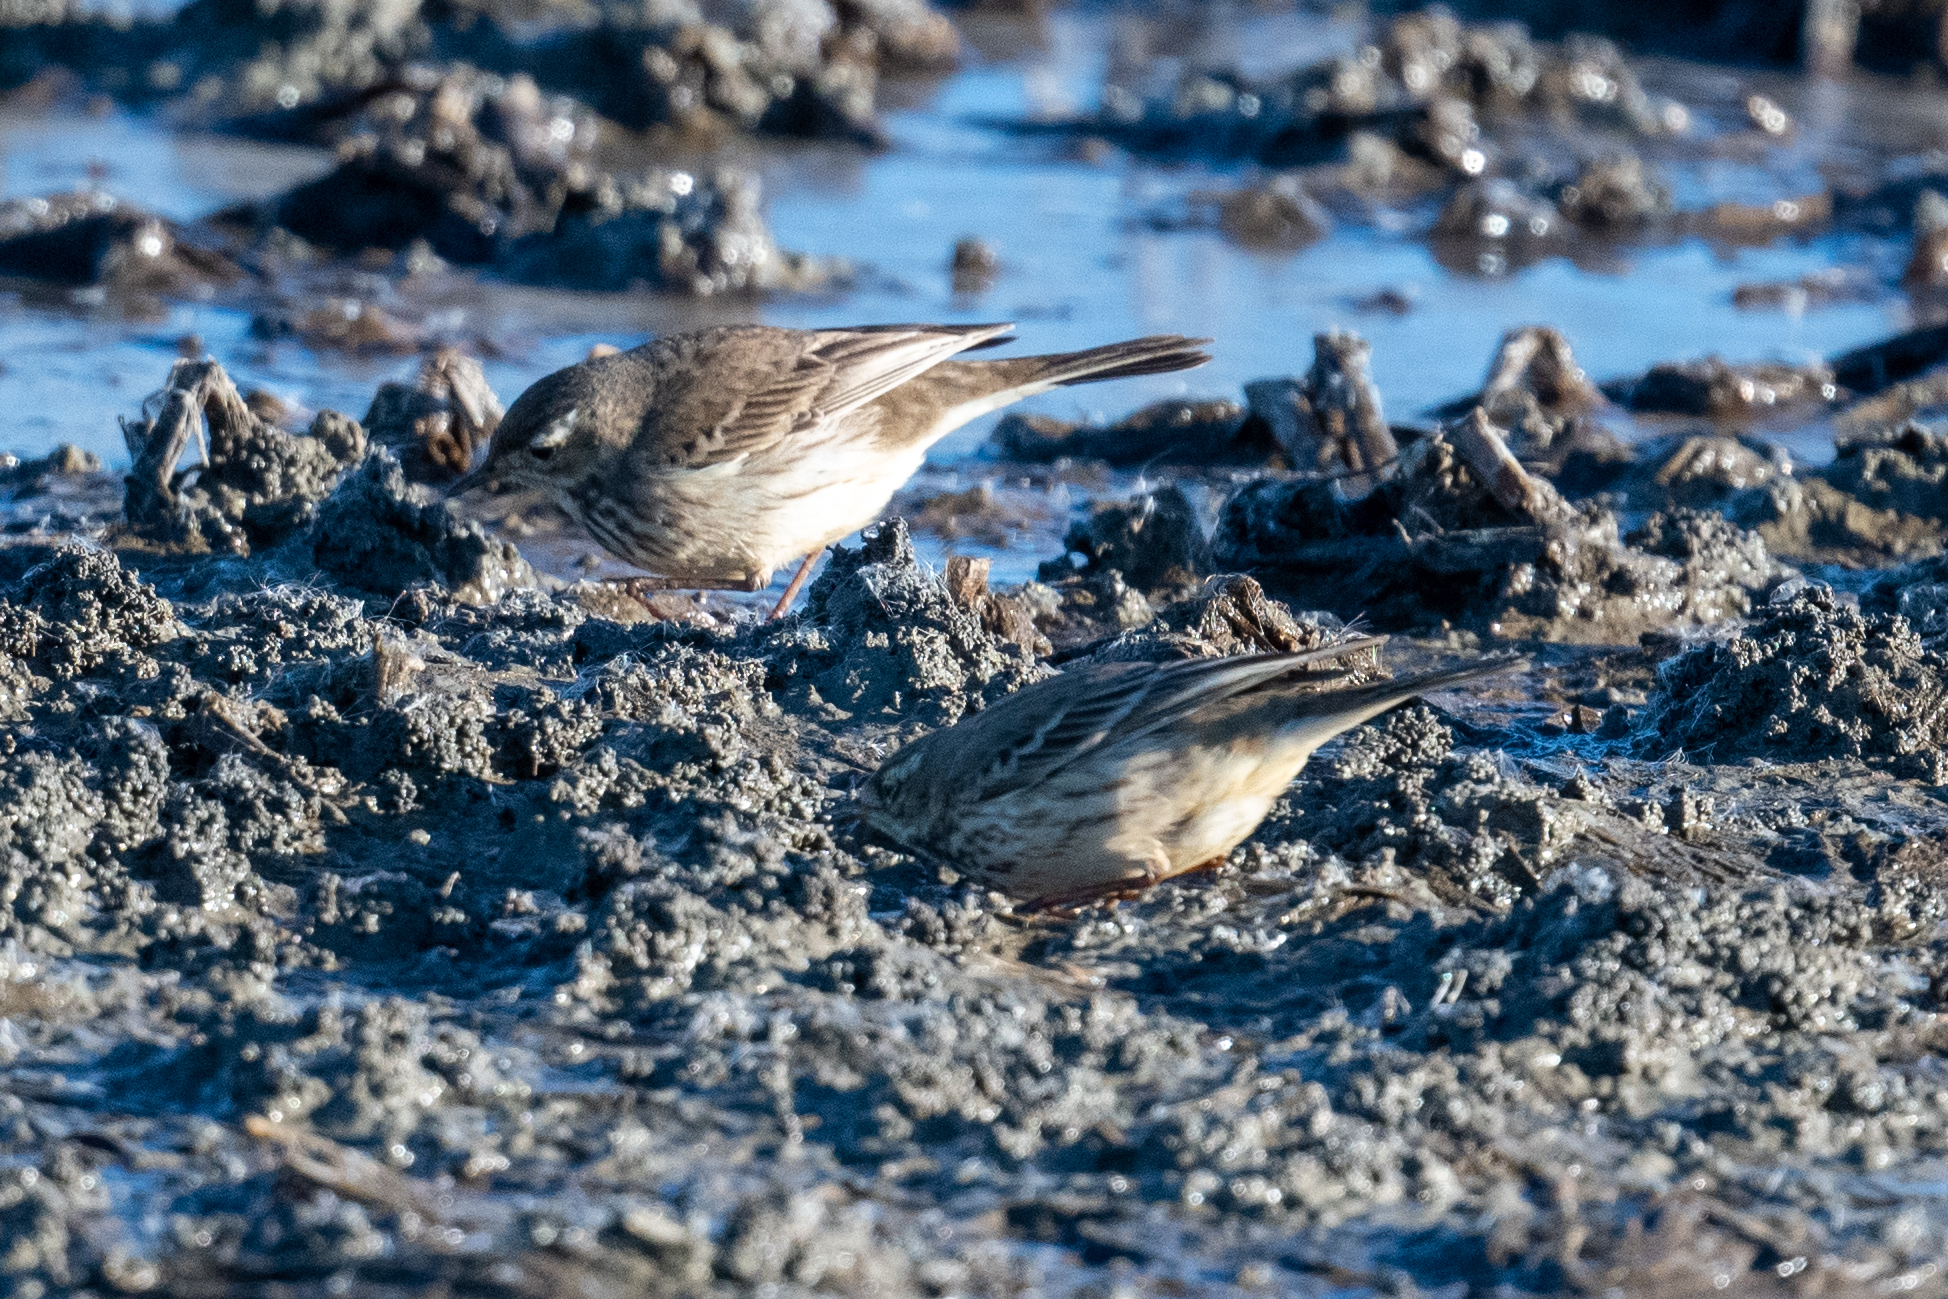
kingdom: Animalia
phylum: Chordata
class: Aves
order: Passeriformes
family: Motacillidae
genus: Anthus
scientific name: Anthus rubescens
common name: Buff-bellied pipit
